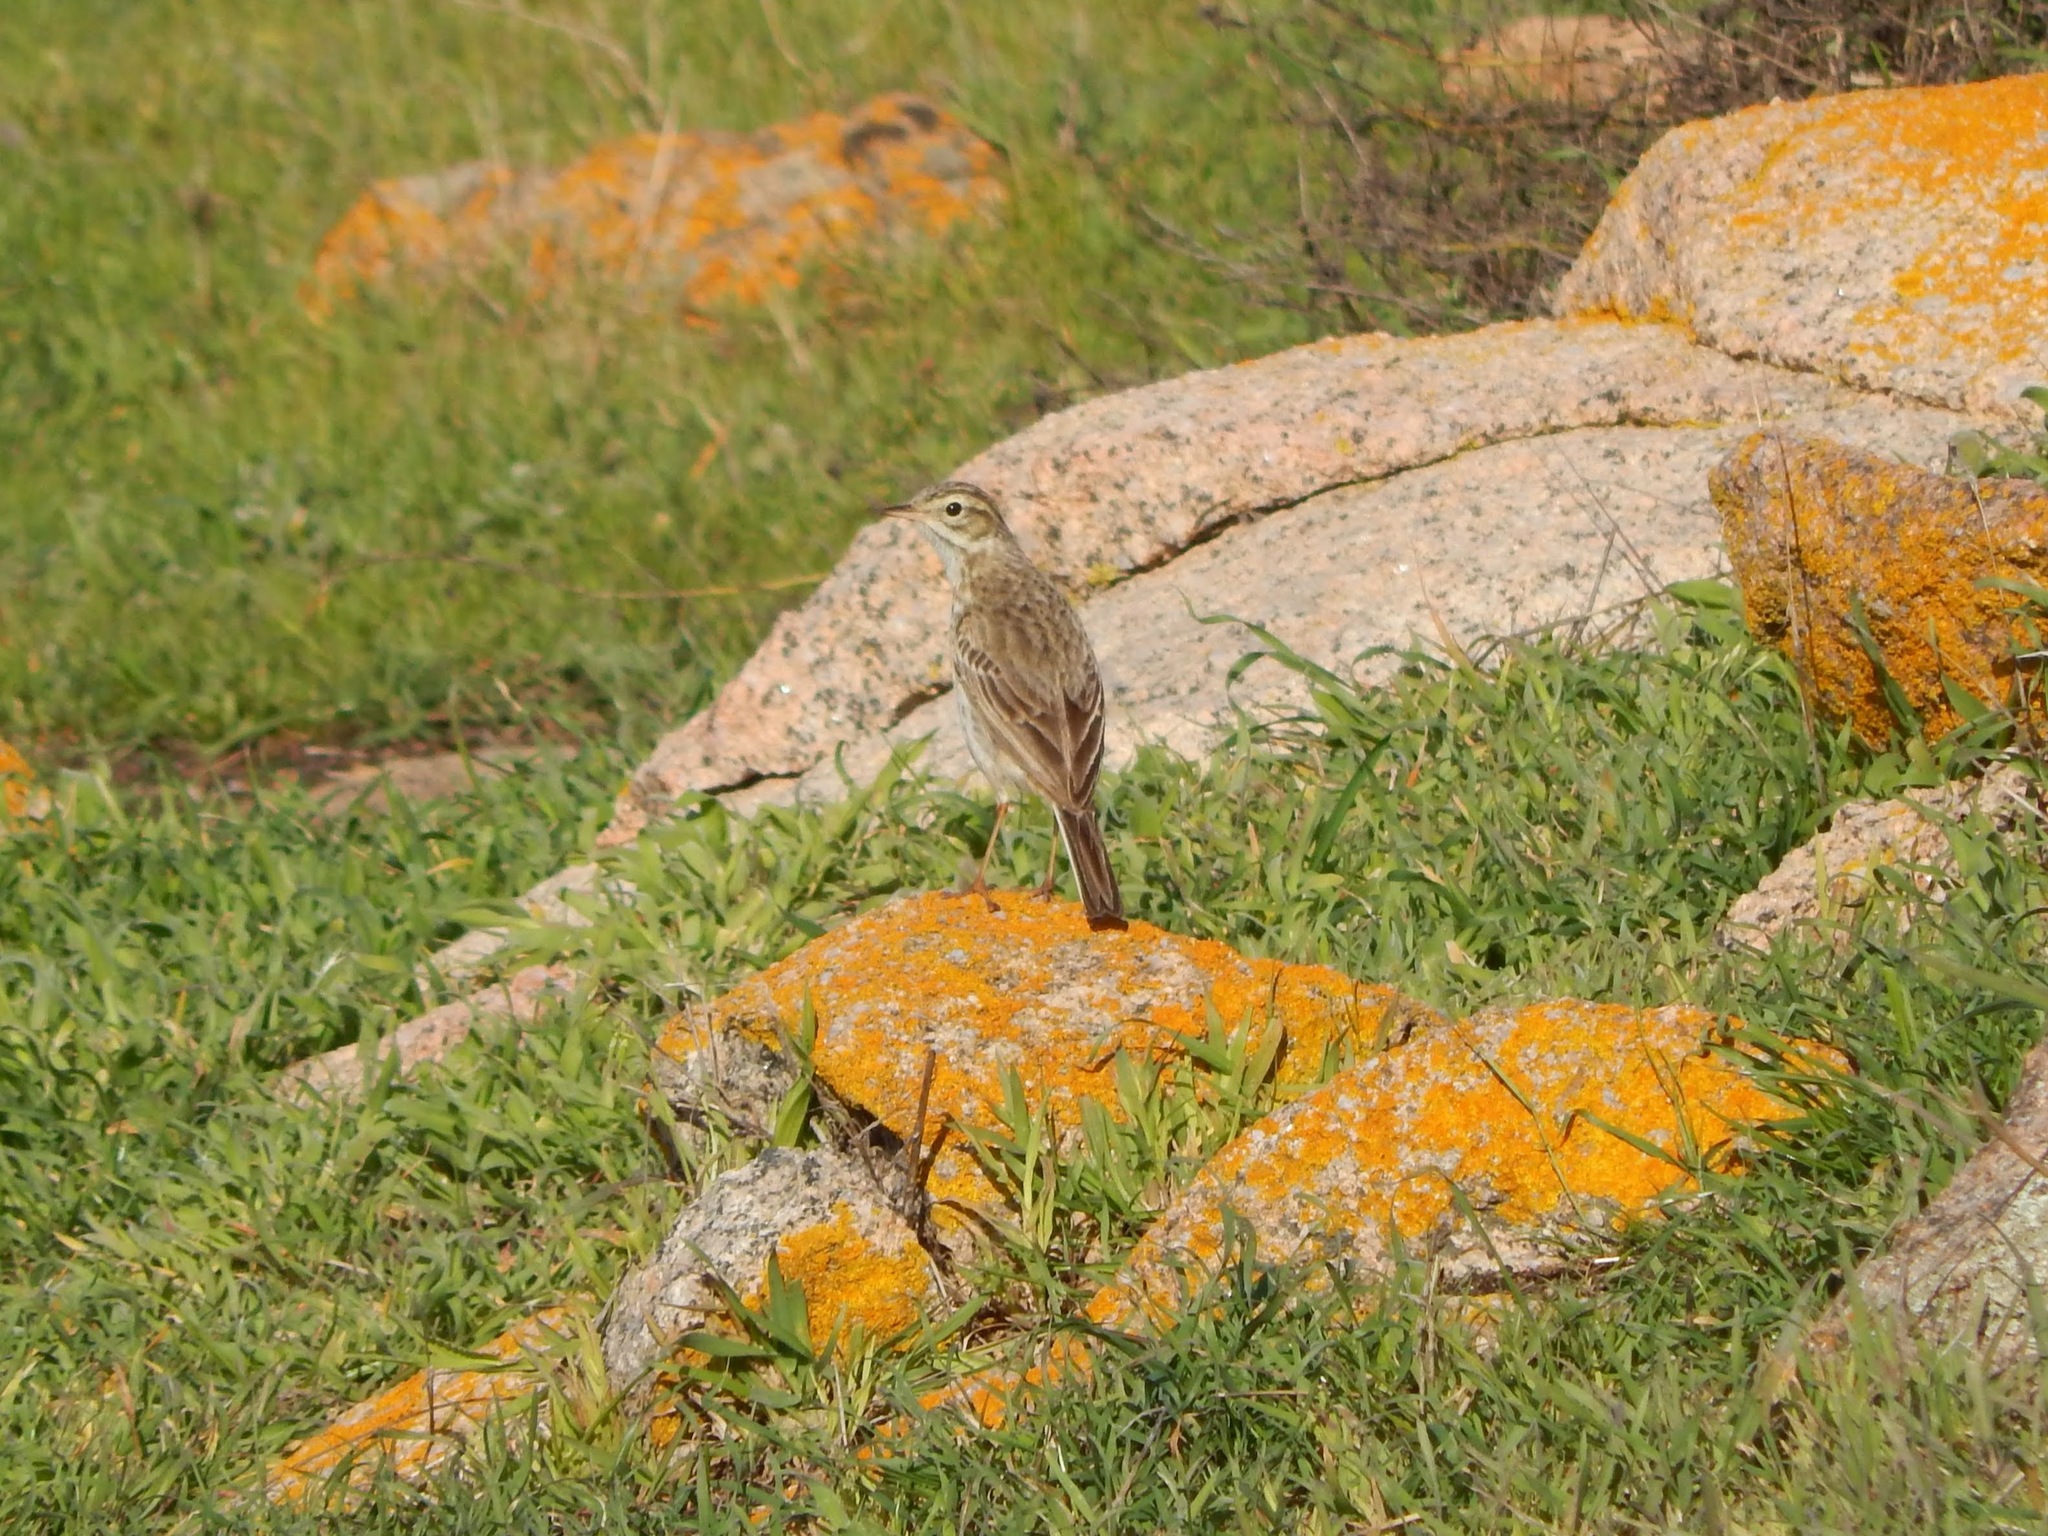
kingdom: Animalia
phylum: Chordata
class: Aves
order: Passeriformes
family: Motacillidae
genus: Anthus
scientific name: Anthus australis
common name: Australian pipit
